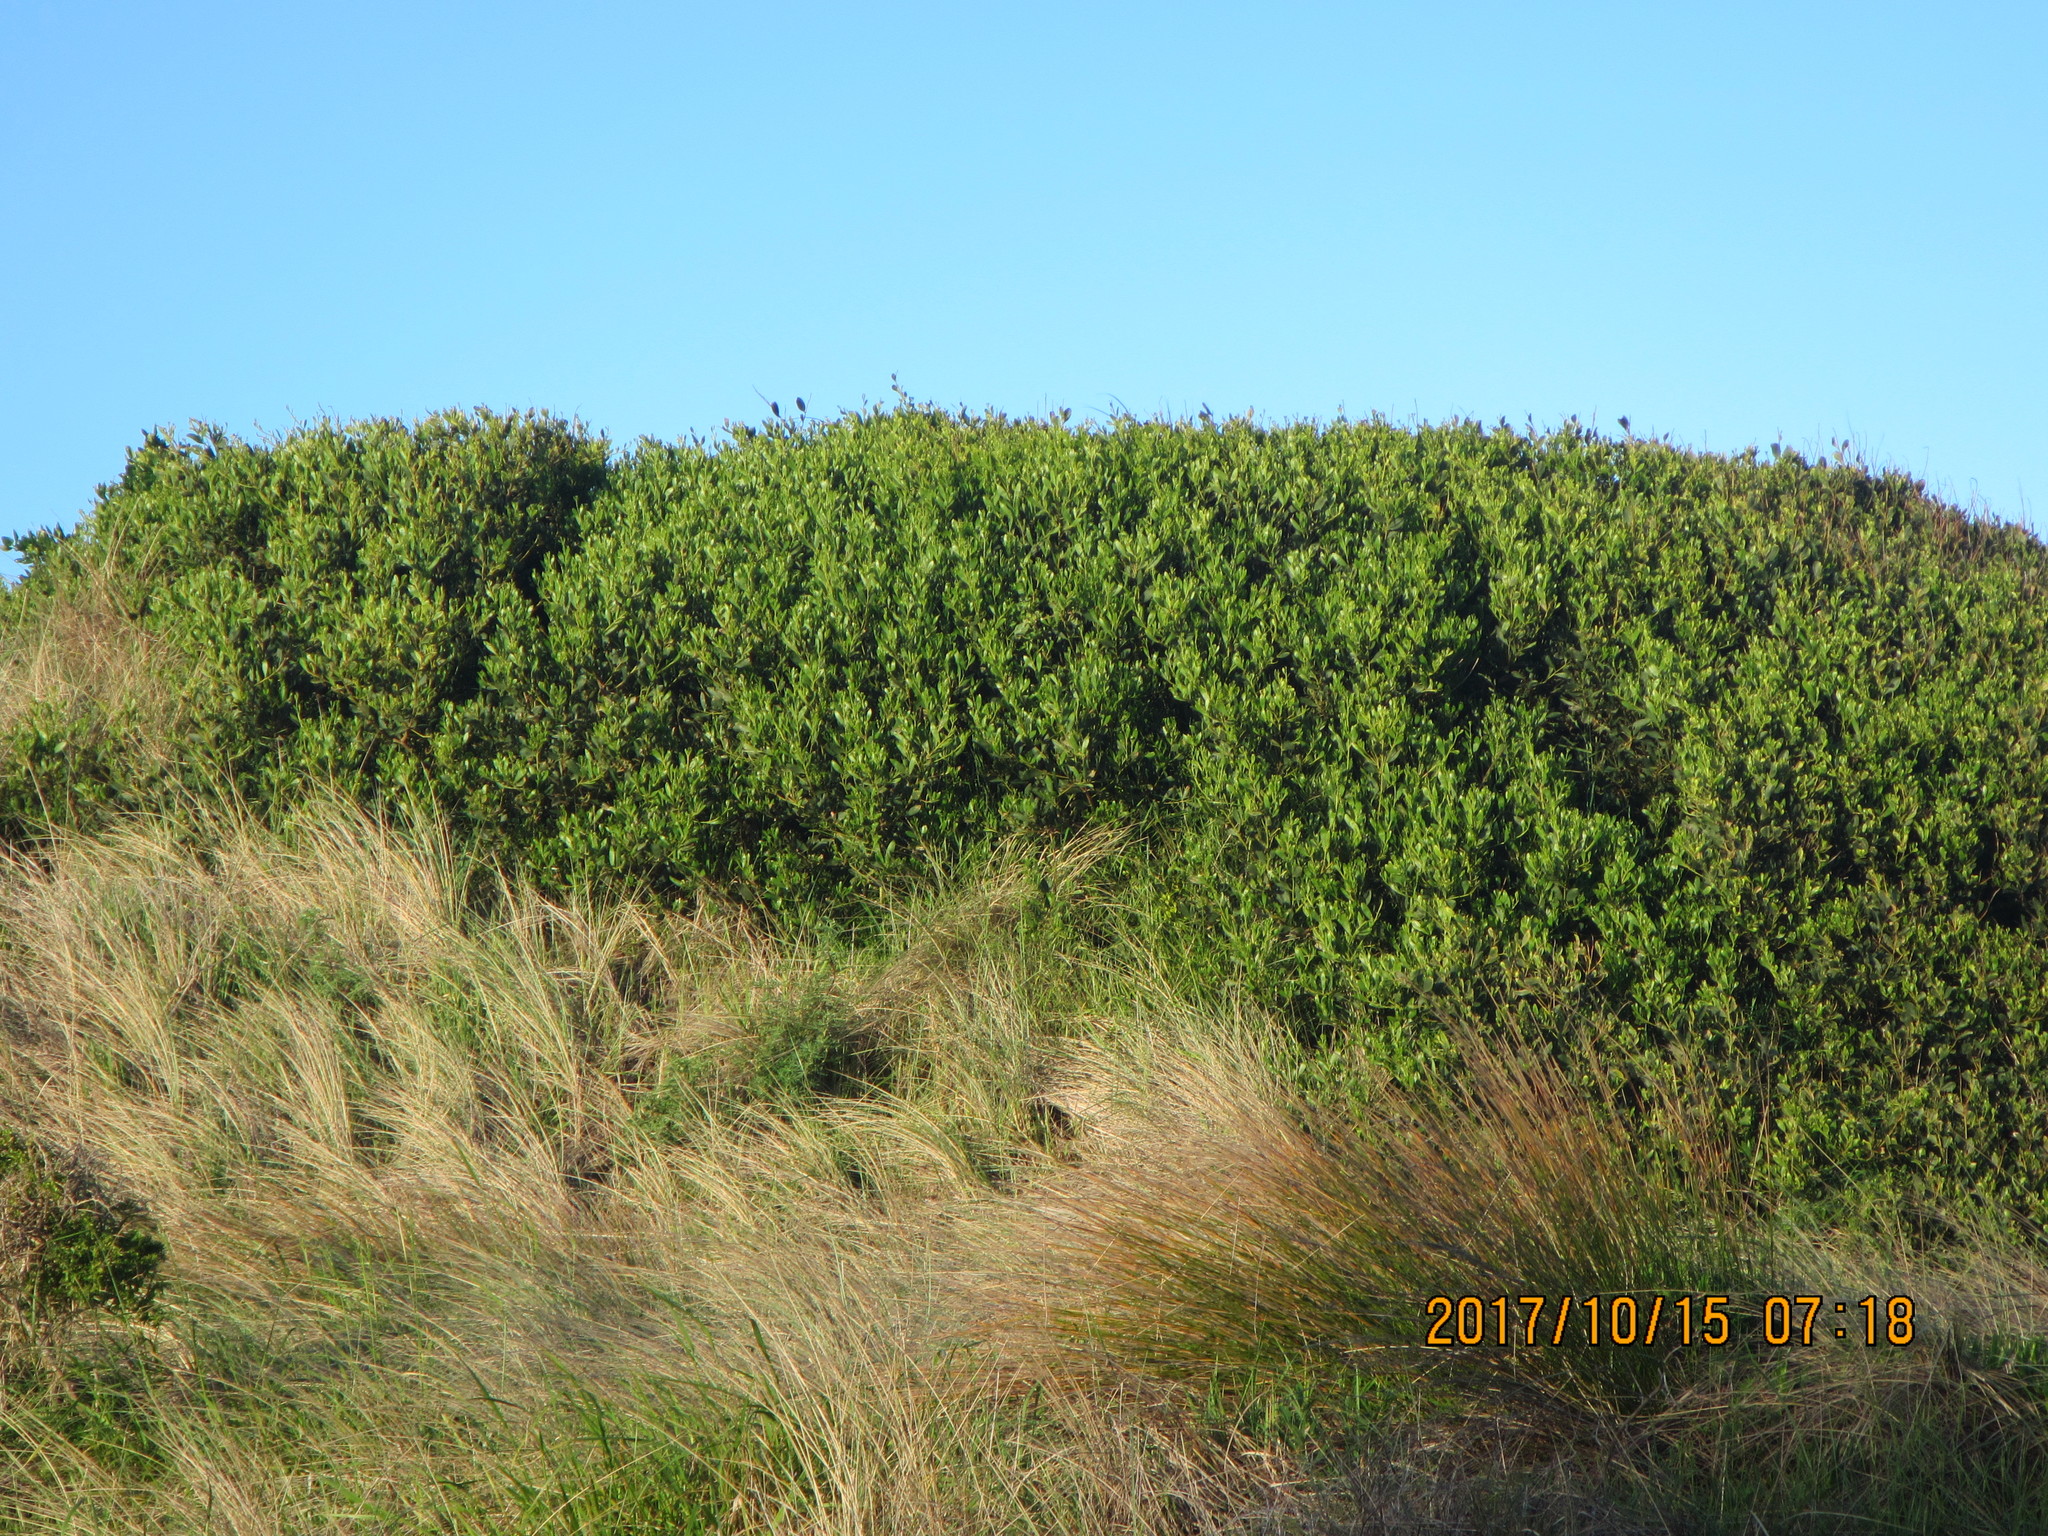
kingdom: Plantae
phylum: Tracheophyta
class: Magnoliopsida
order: Fabales
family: Fabaceae
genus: Acacia
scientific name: Acacia longifolia
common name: Sydney golden wattle
